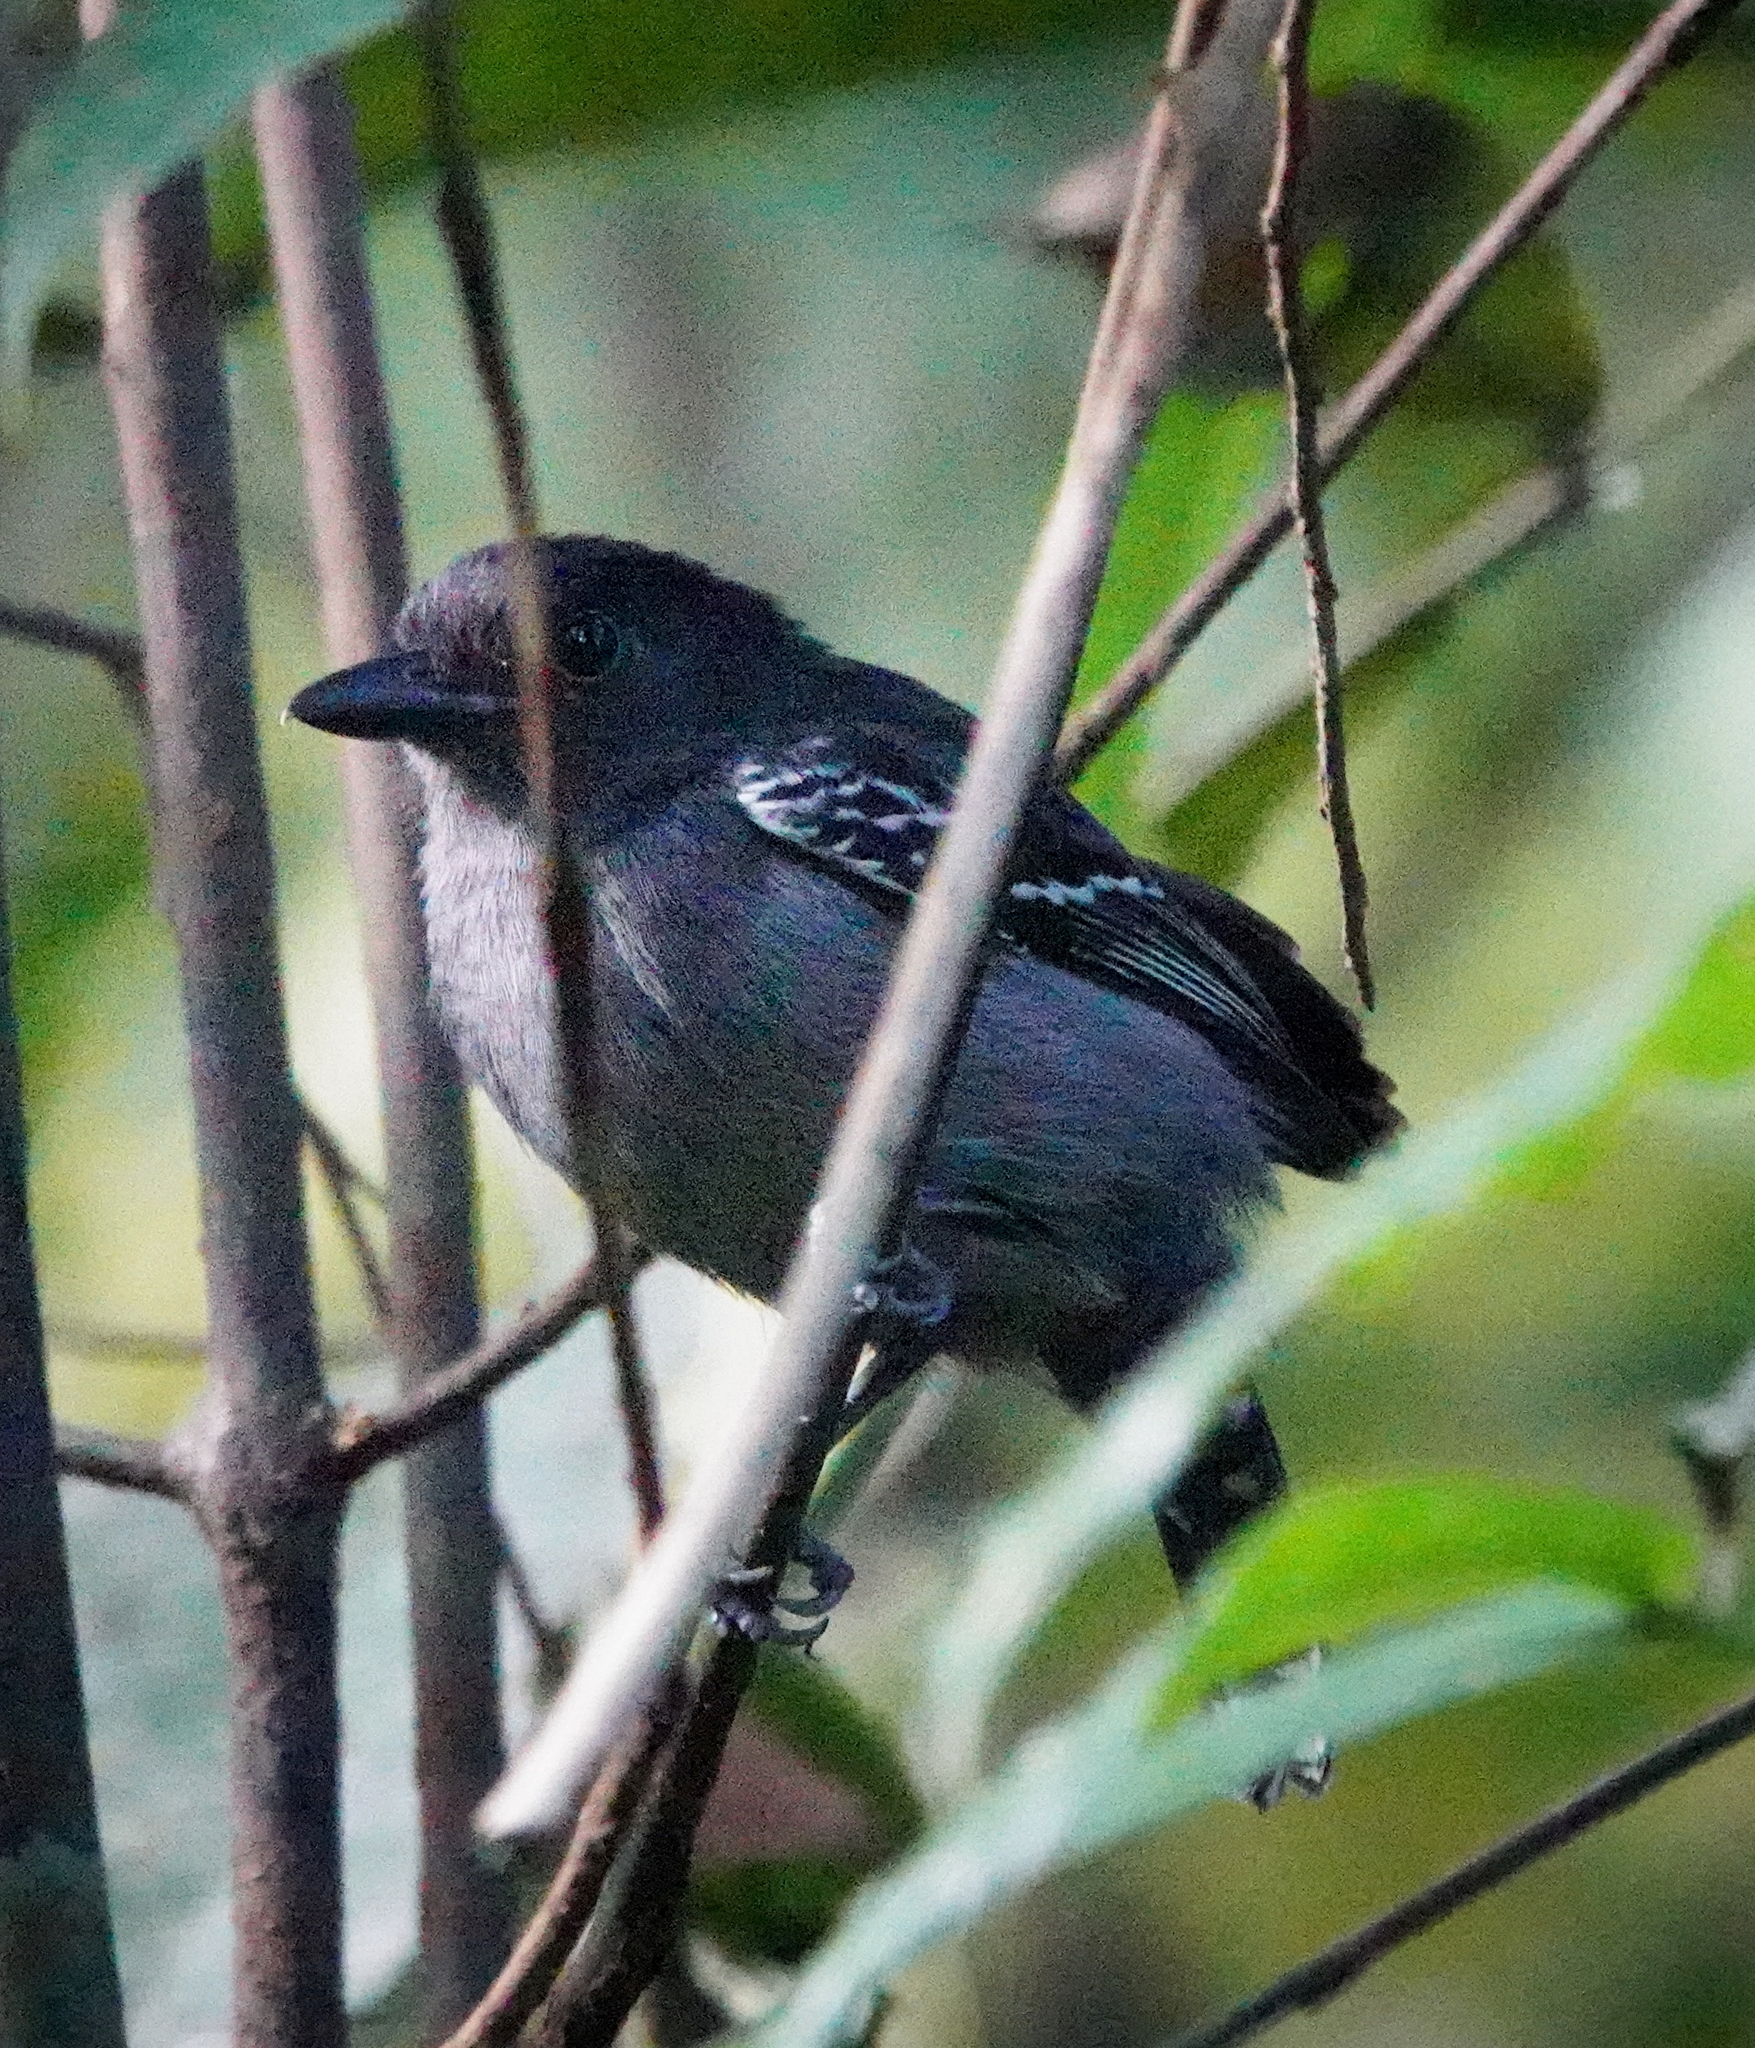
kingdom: Animalia
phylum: Chordata
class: Aves
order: Passeriformes
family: Thamnophilidae
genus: Thamnophilus
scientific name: Thamnophilus nigrocinereus
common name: Blackish-grey antshrike
